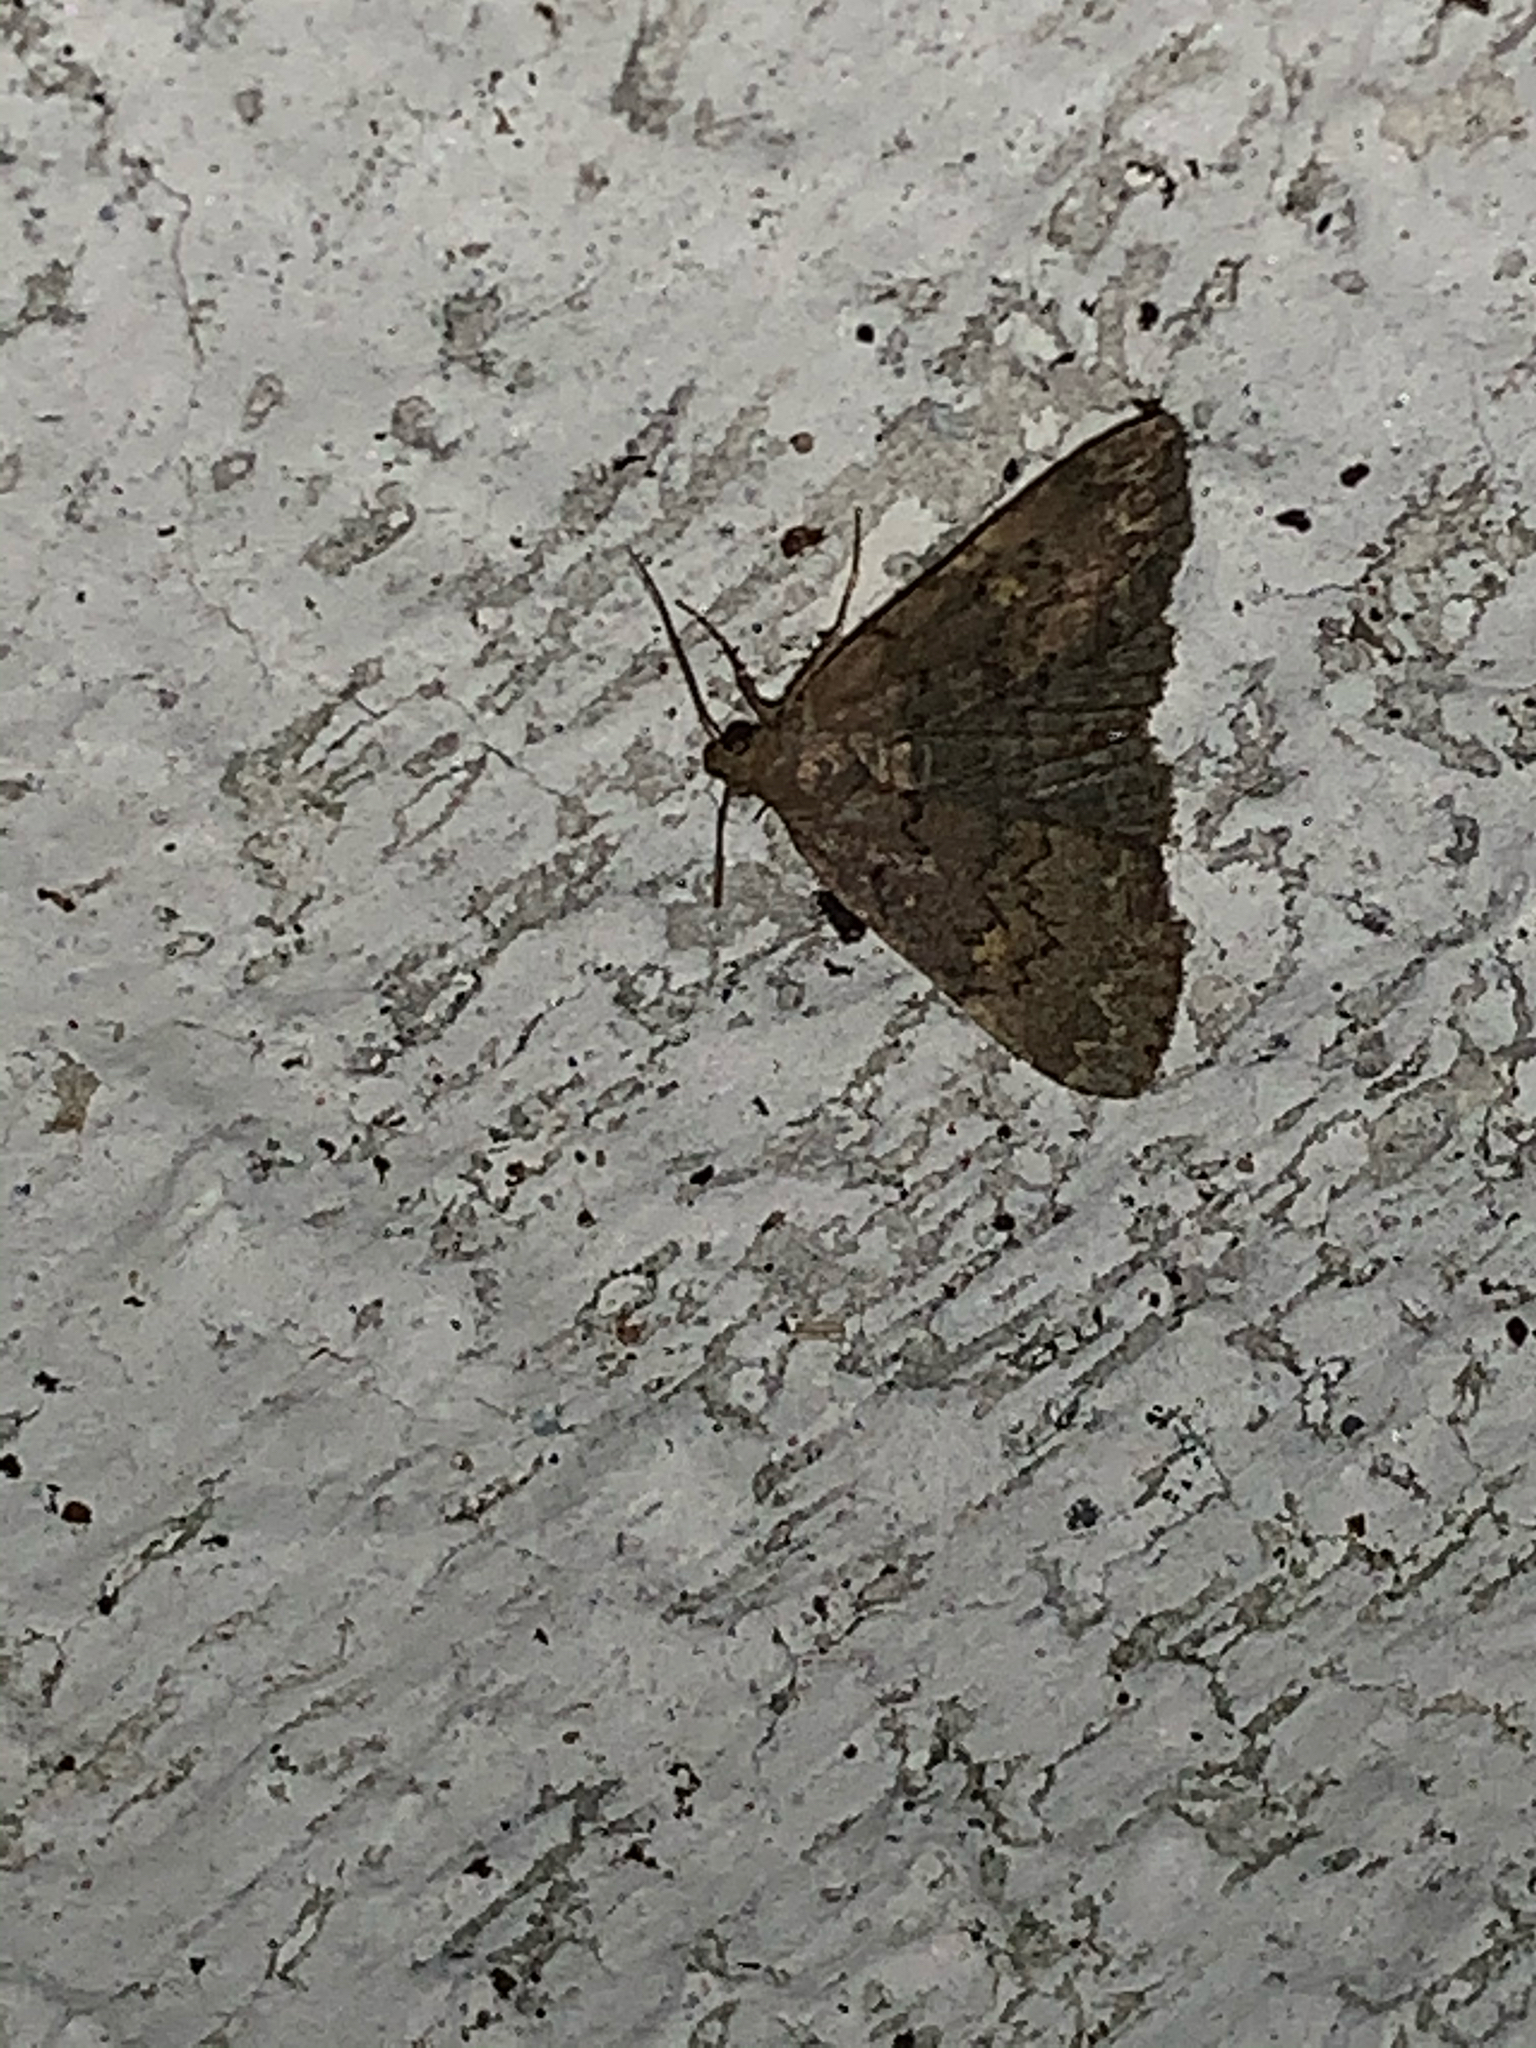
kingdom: Animalia
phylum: Arthropoda
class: Insecta
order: Lepidoptera
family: Erebidae
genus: Idia
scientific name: Idia aemula
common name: Common idia moth
